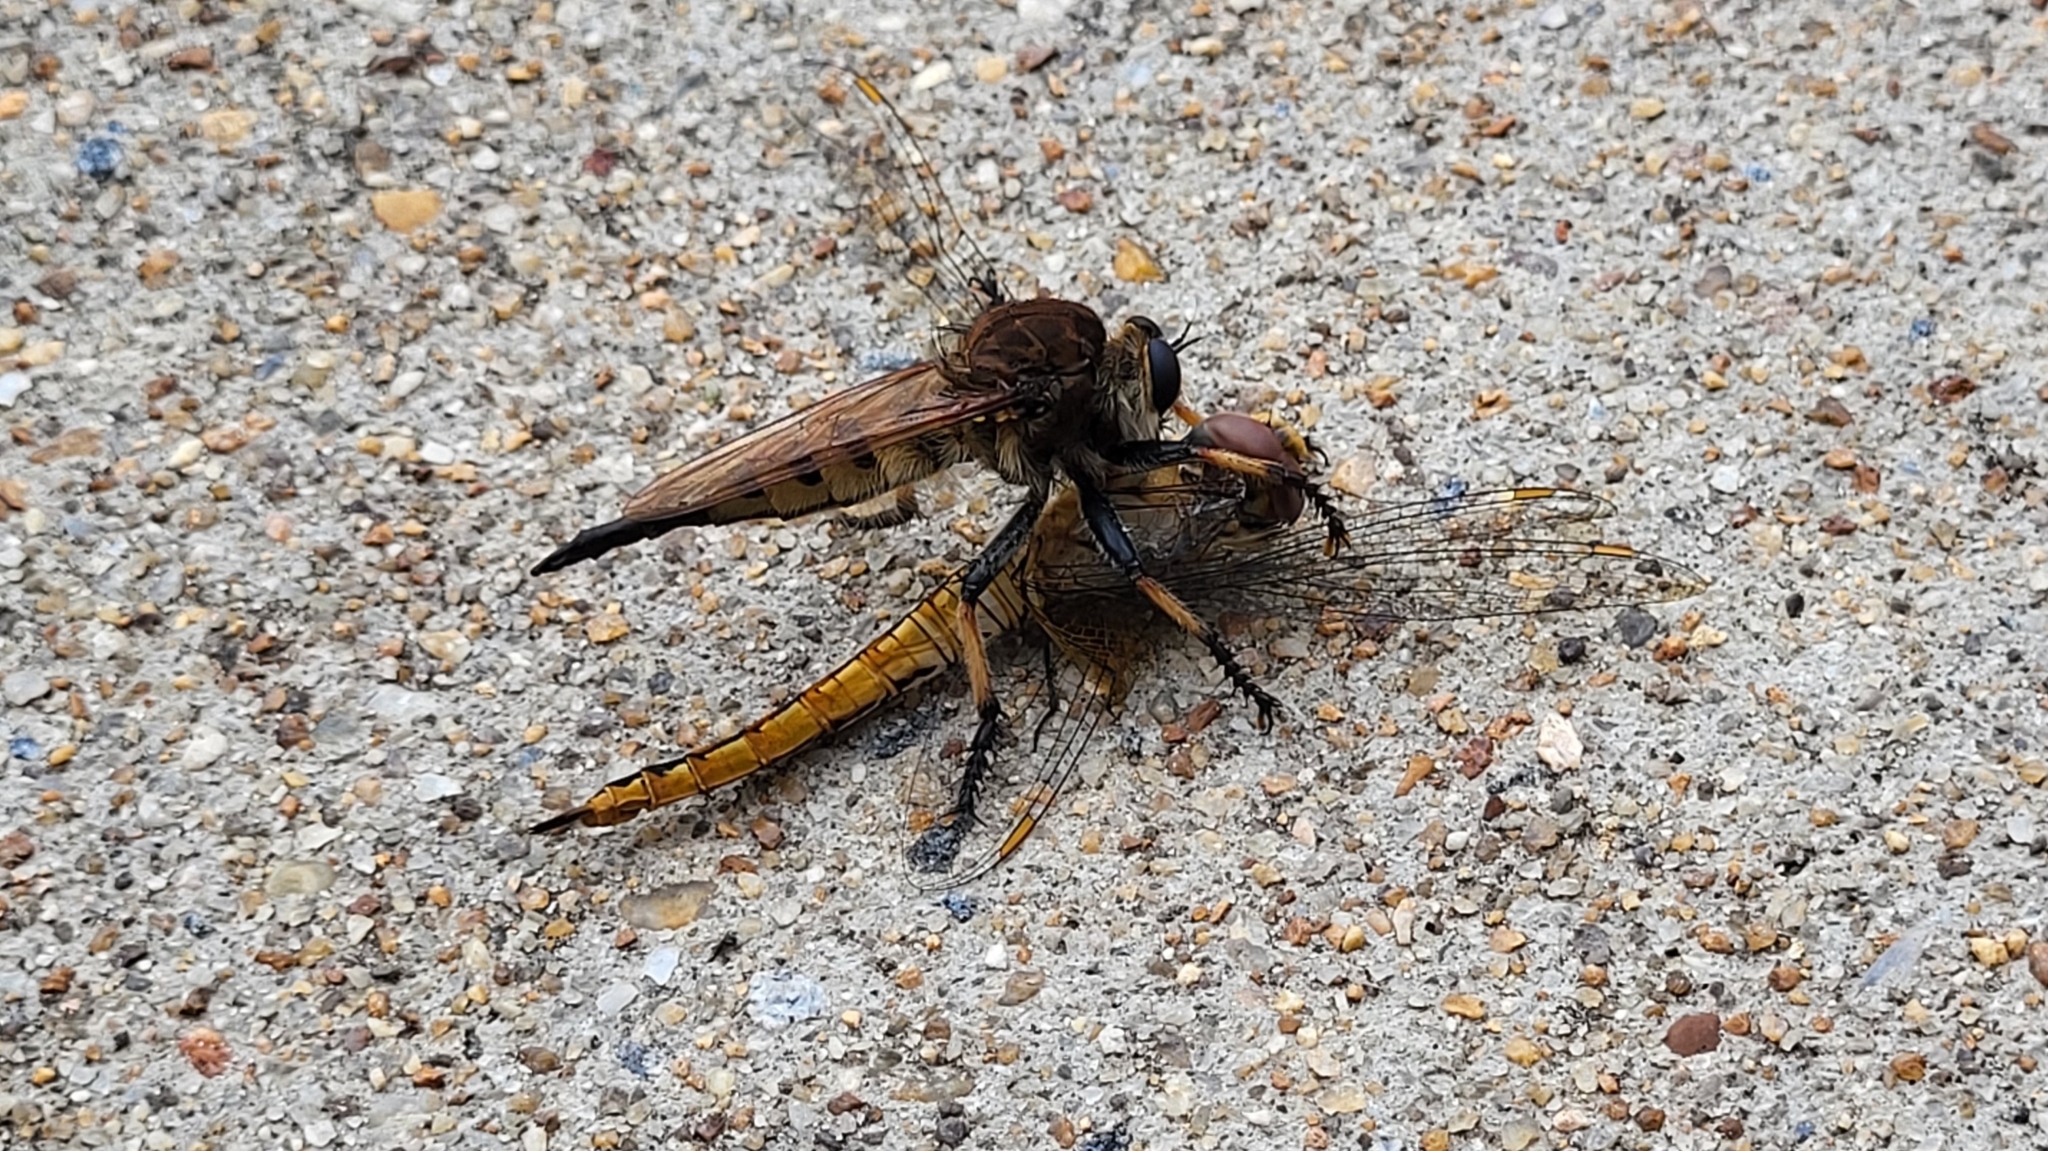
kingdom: Animalia
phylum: Arthropoda
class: Insecta
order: Diptera
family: Asilidae
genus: Promachus
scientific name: Promachus rufipes
